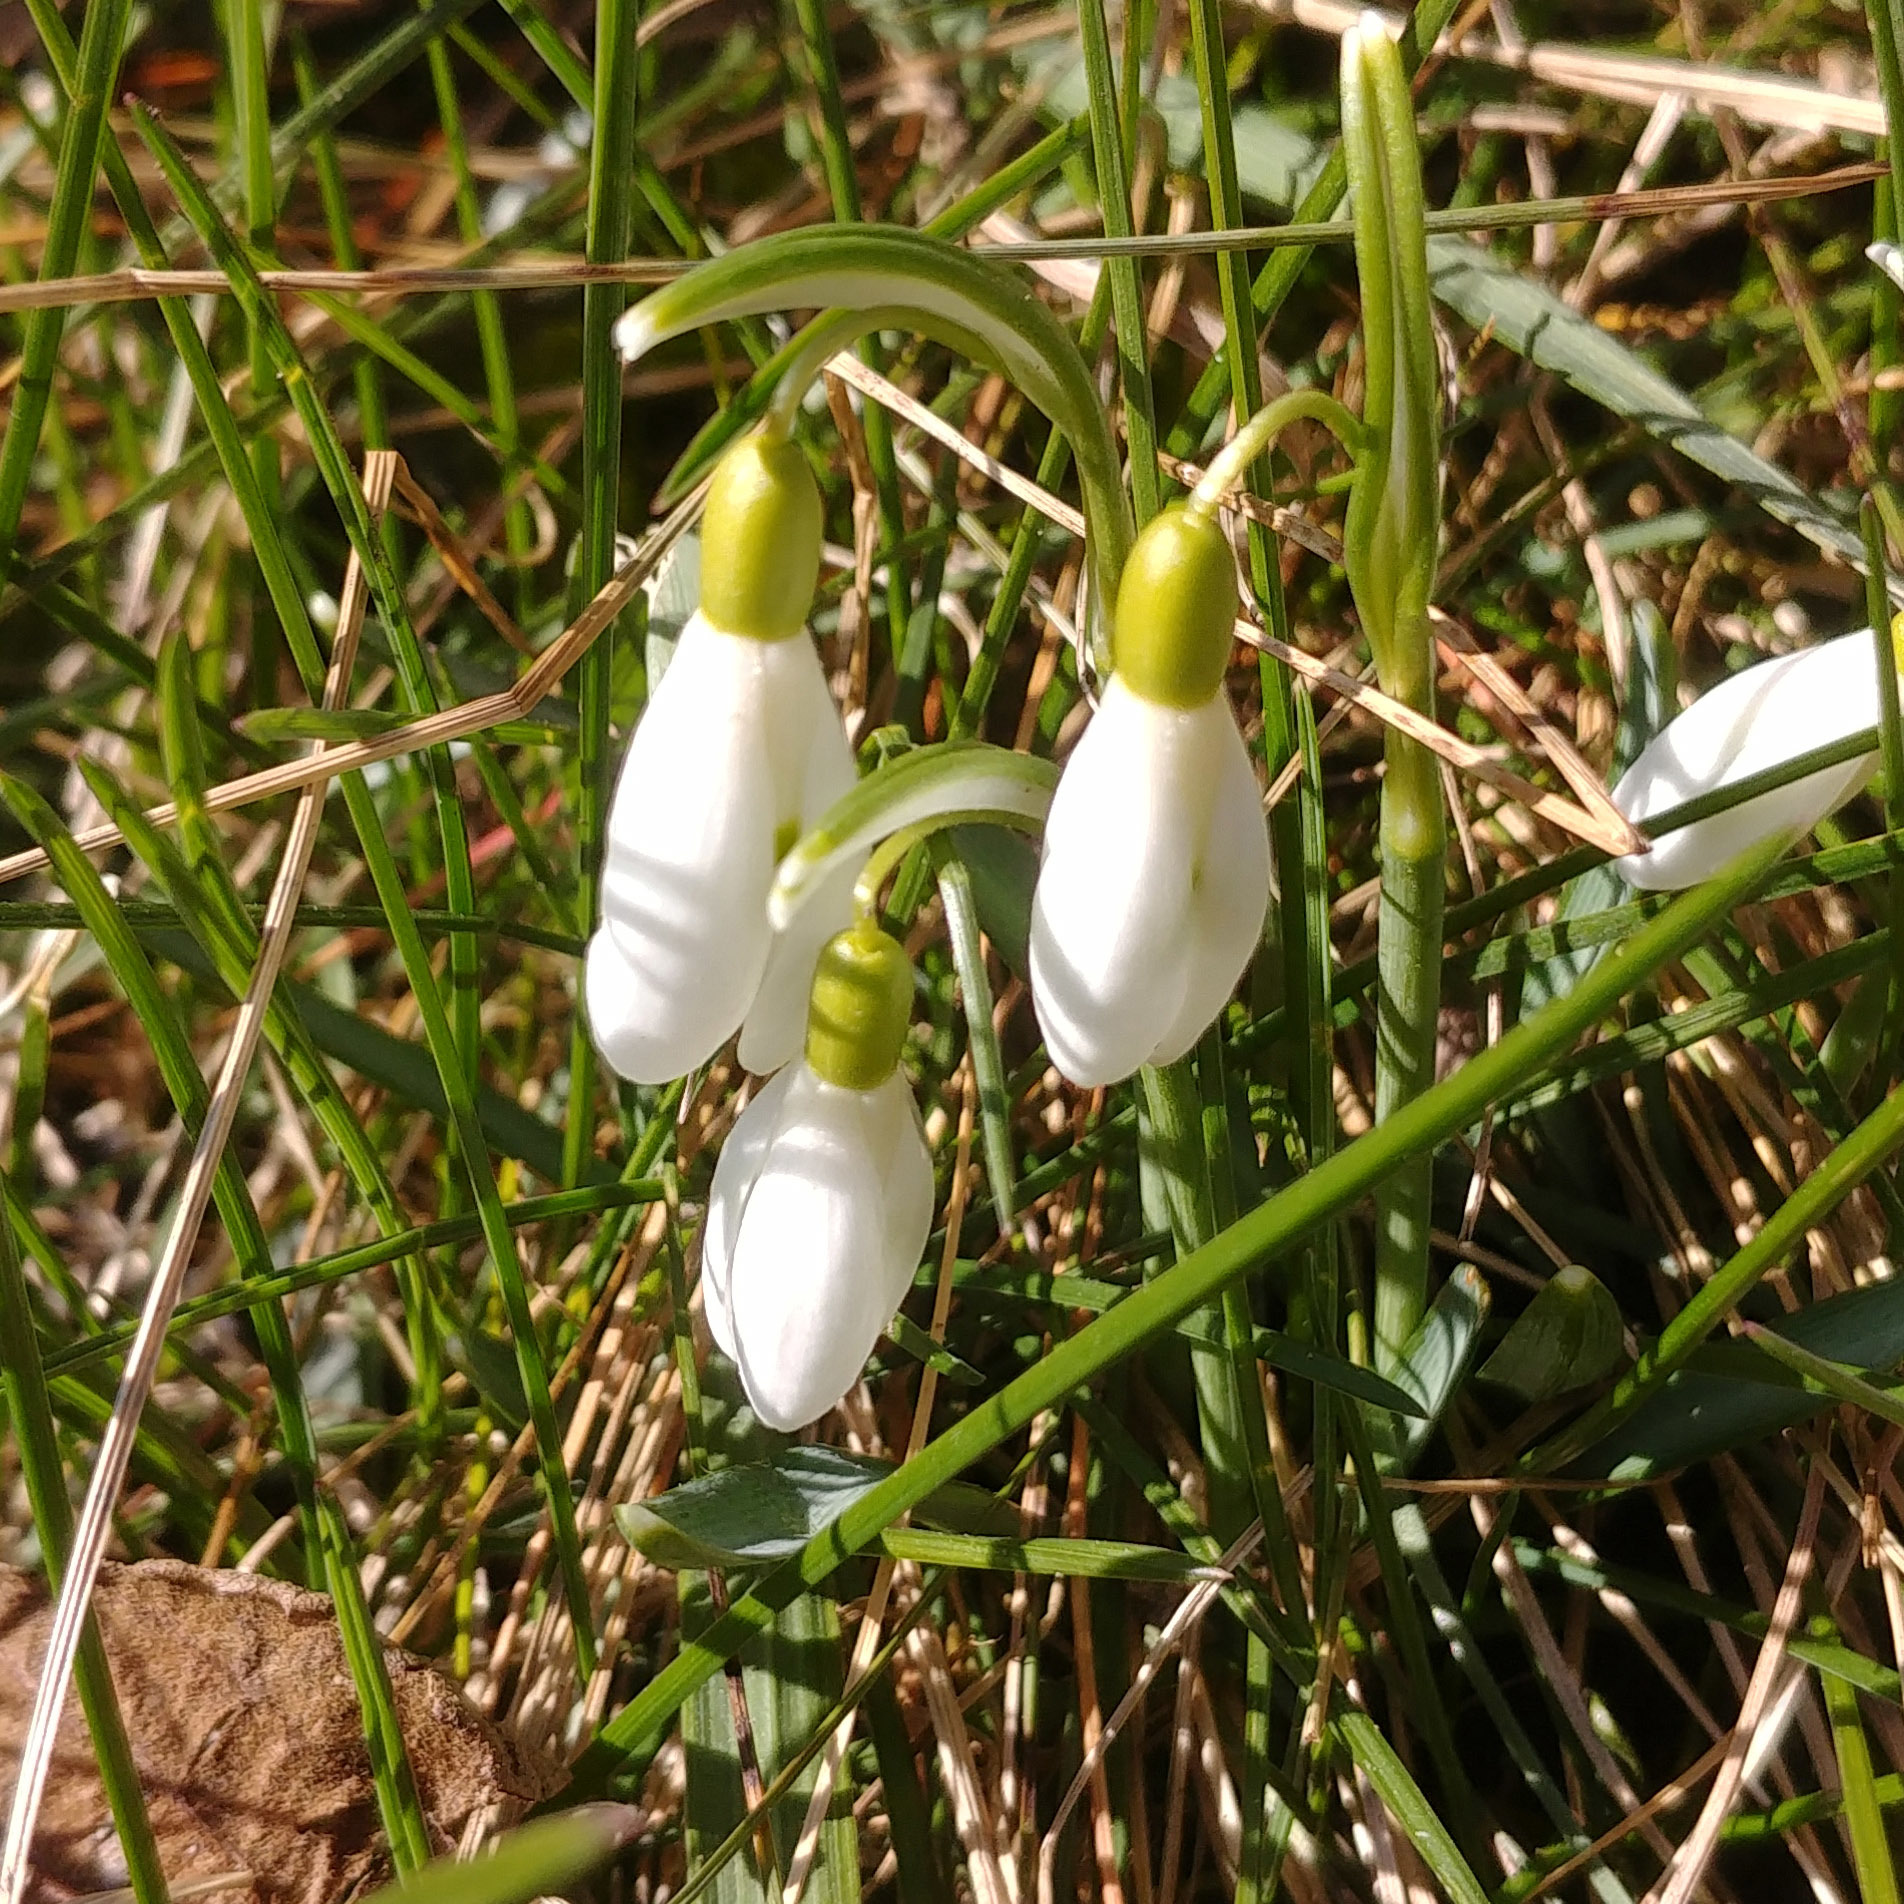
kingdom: Plantae
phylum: Tracheophyta
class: Liliopsida
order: Asparagales
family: Amaryllidaceae
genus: Galanthus
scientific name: Galanthus nivalis
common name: Snowdrop
